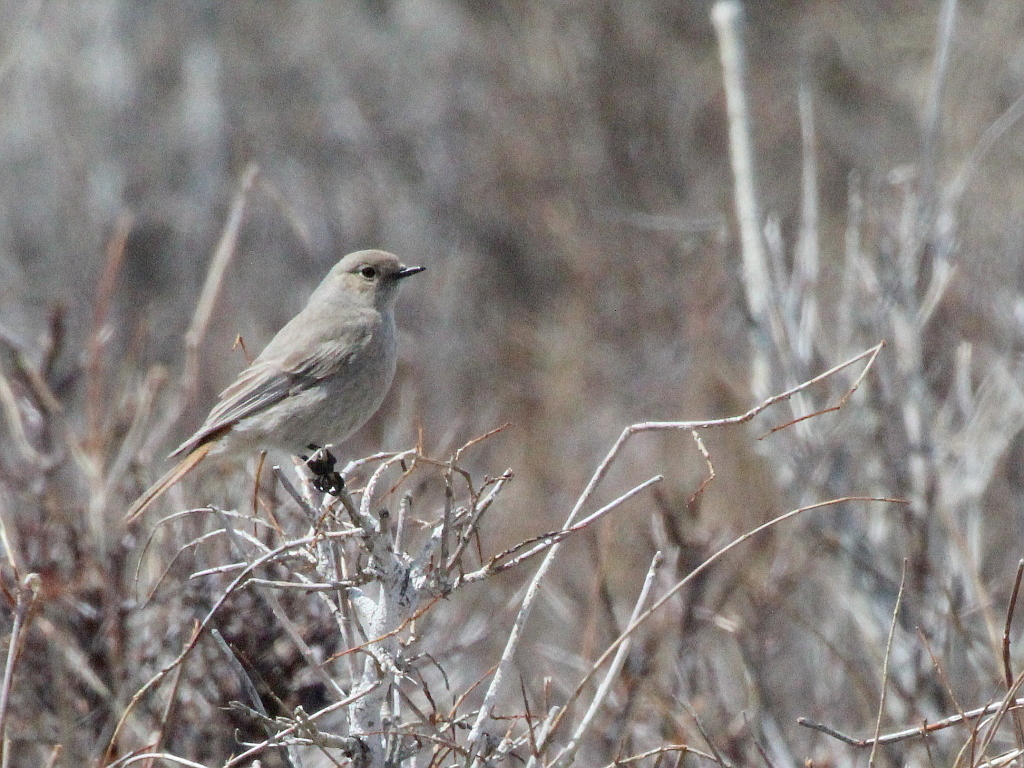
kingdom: Animalia
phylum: Chordata
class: Aves
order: Passeriformes
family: Muscicapidae
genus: Phoenicurus
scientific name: Phoenicurus erythrogastrus
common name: Güldenstädt's redstart
